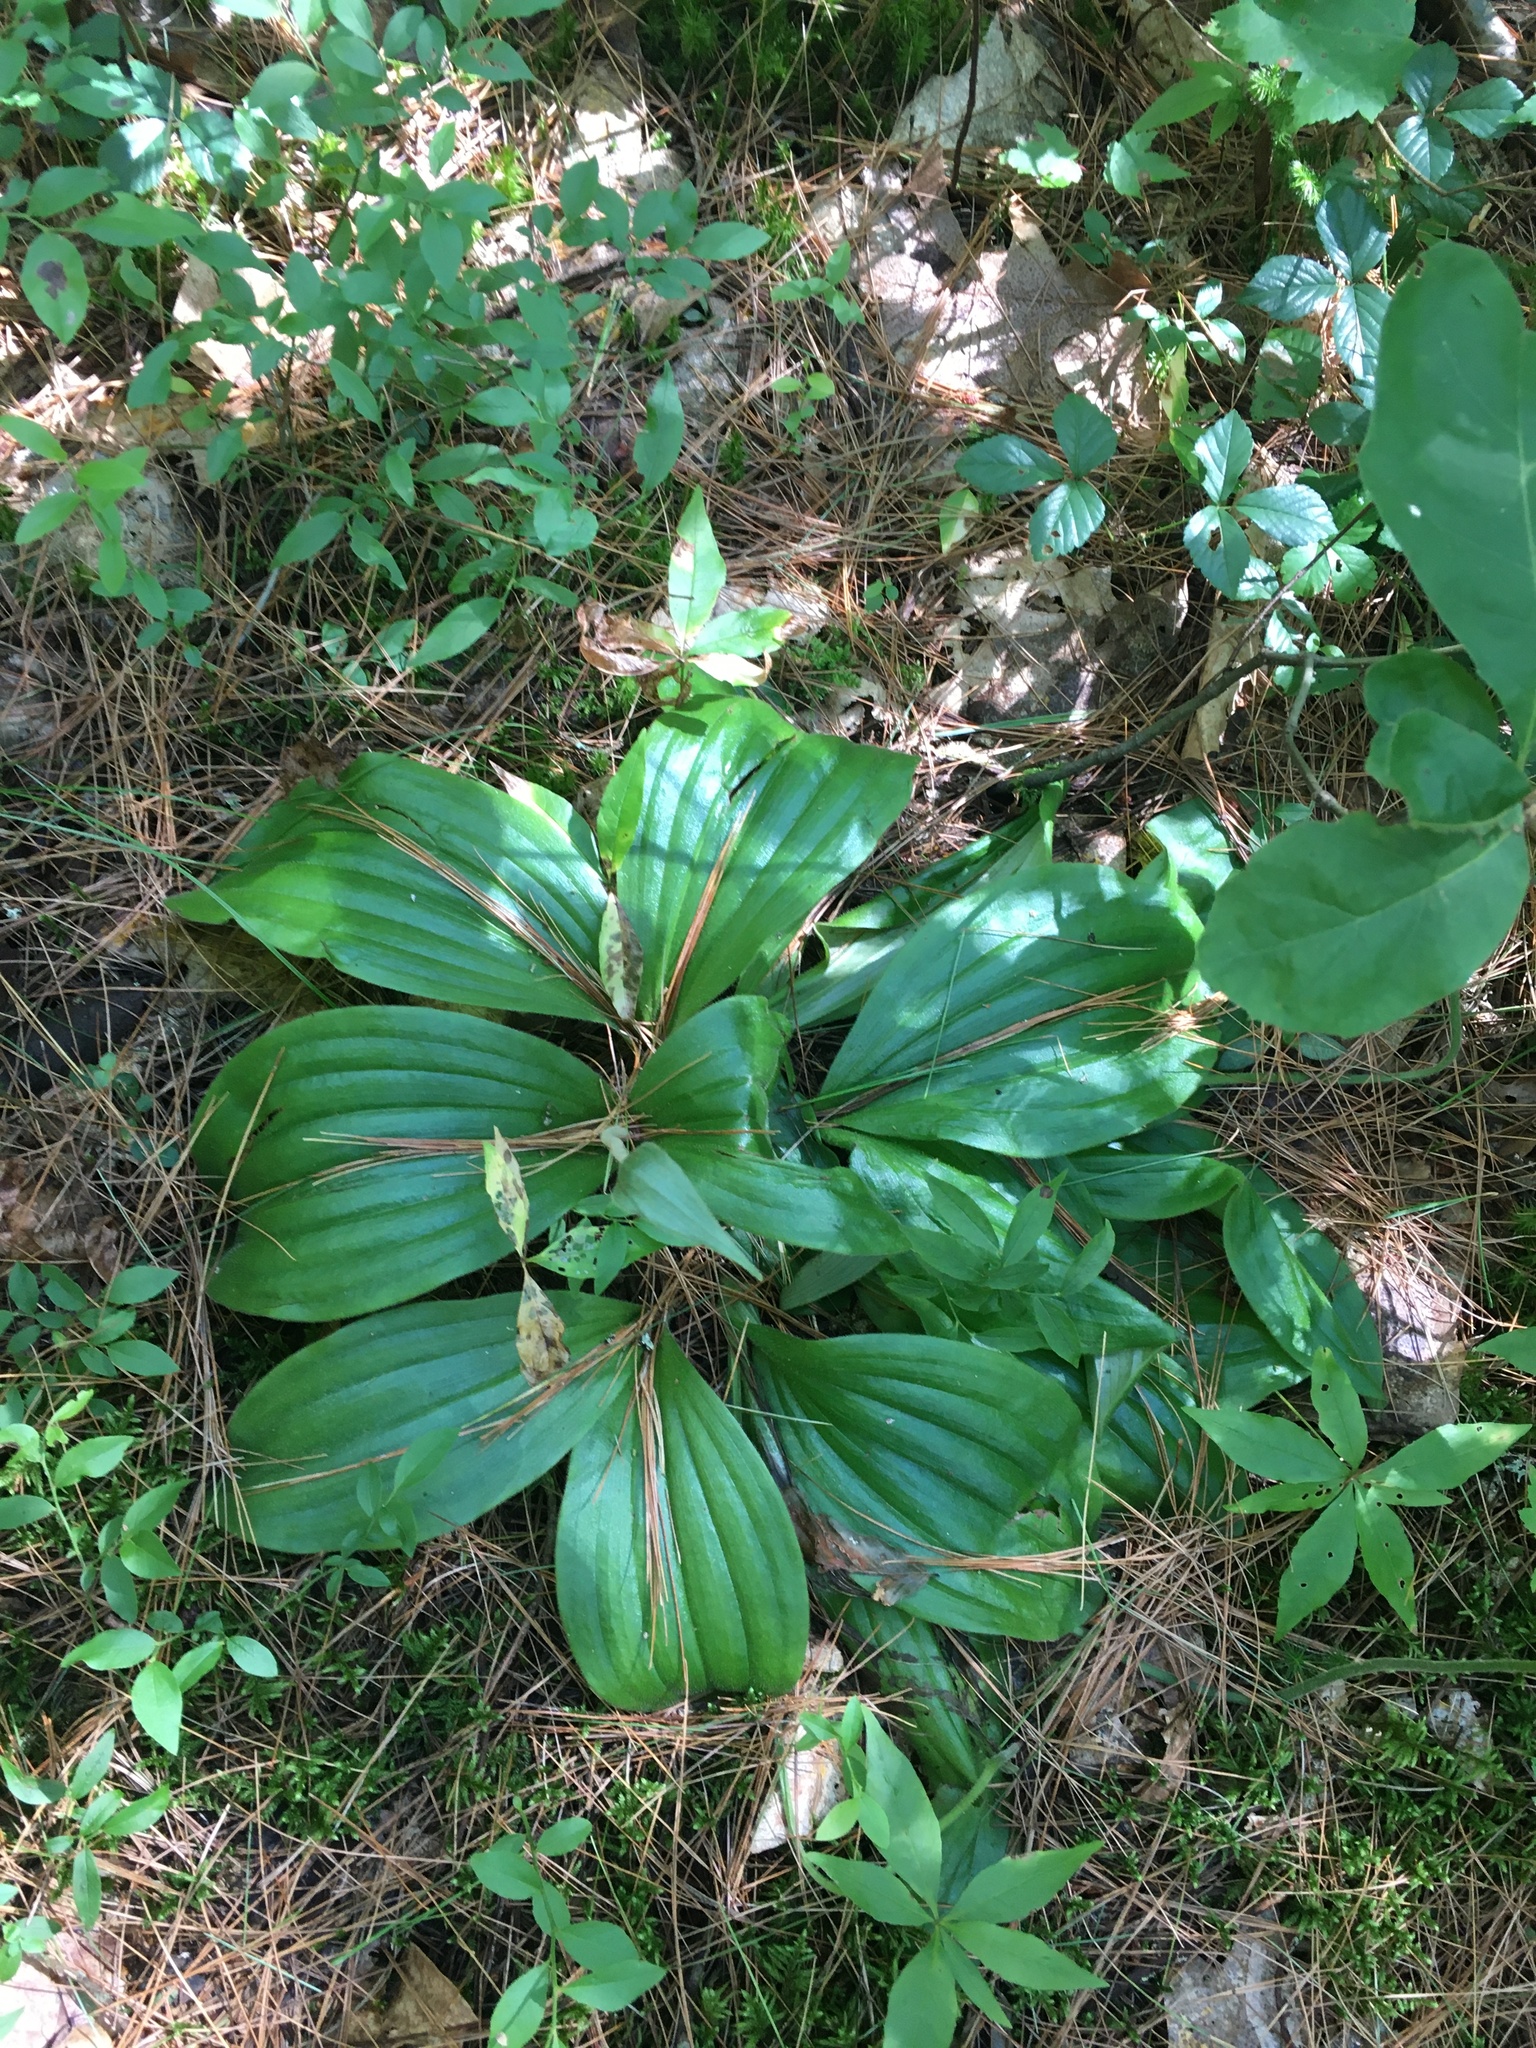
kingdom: Plantae
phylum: Tracheophyta
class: Liliopsida
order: Asparagales
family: Orchidaceae
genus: Cypripedium
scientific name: Cypripedium acaule
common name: Pink lady's-slipper
